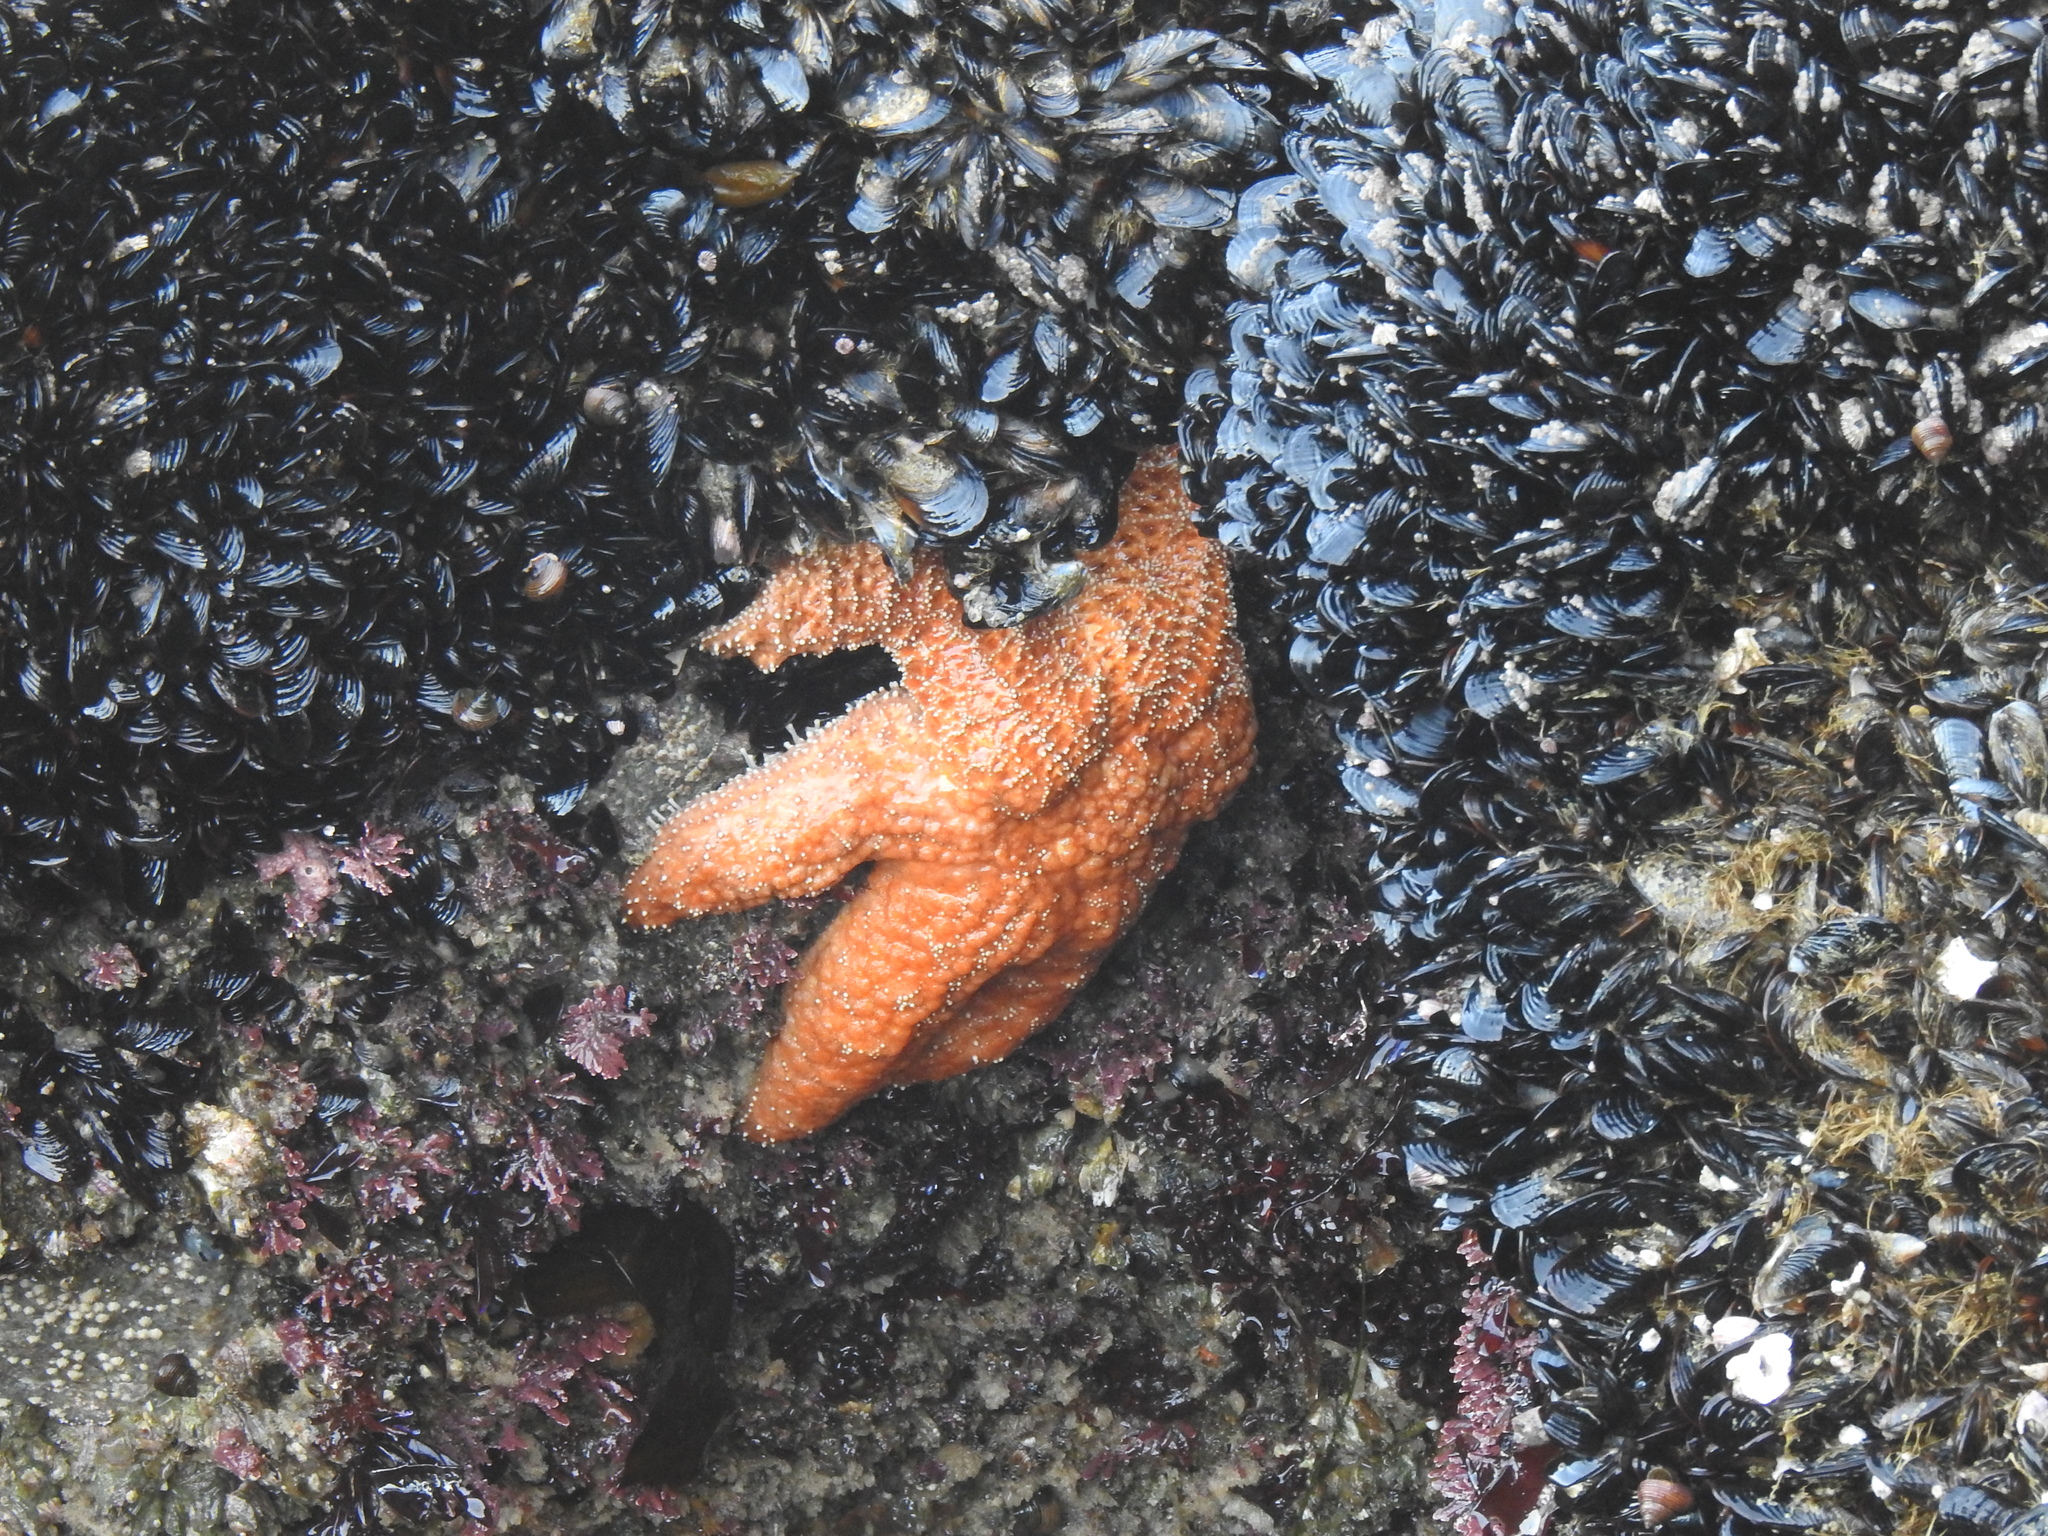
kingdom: Animalia
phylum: Echinodermata
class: Asteroidea
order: Forcipulatida
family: Asteriidae
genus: Pisaster
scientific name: Pisaster ochraceus
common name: Ochre stars
